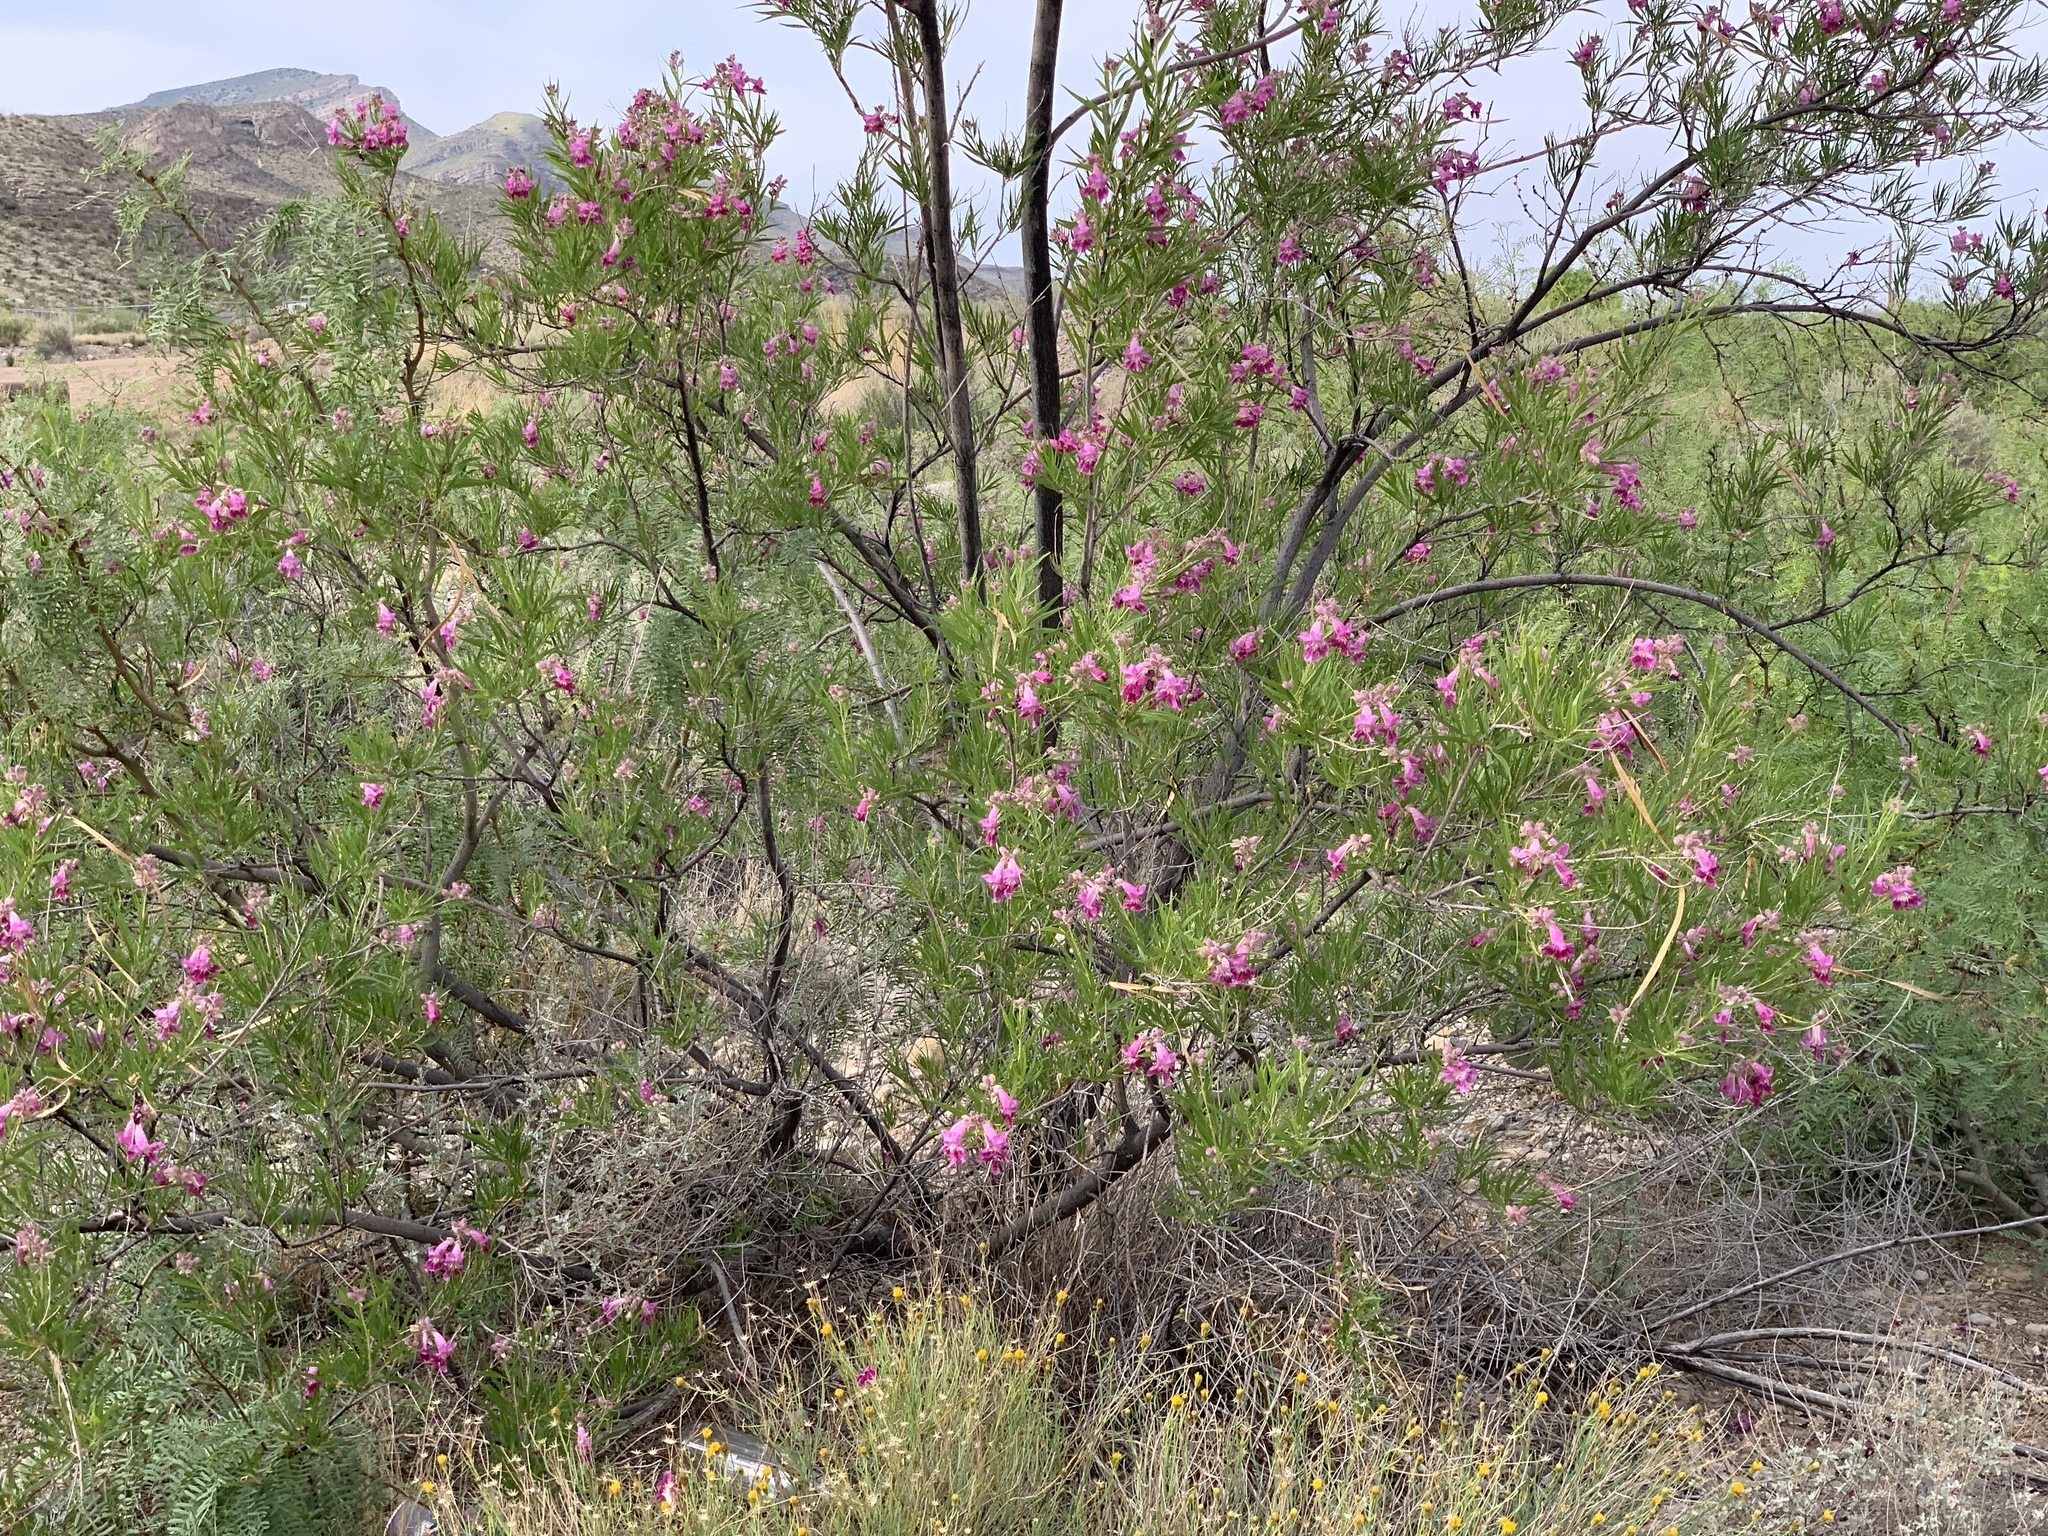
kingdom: Plantae
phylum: Tracheophyta
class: Magnoliopsida
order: Lamiales
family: Bignoniaceae
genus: Chilopsis
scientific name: Chilopsis linearis
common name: Desert-willow
